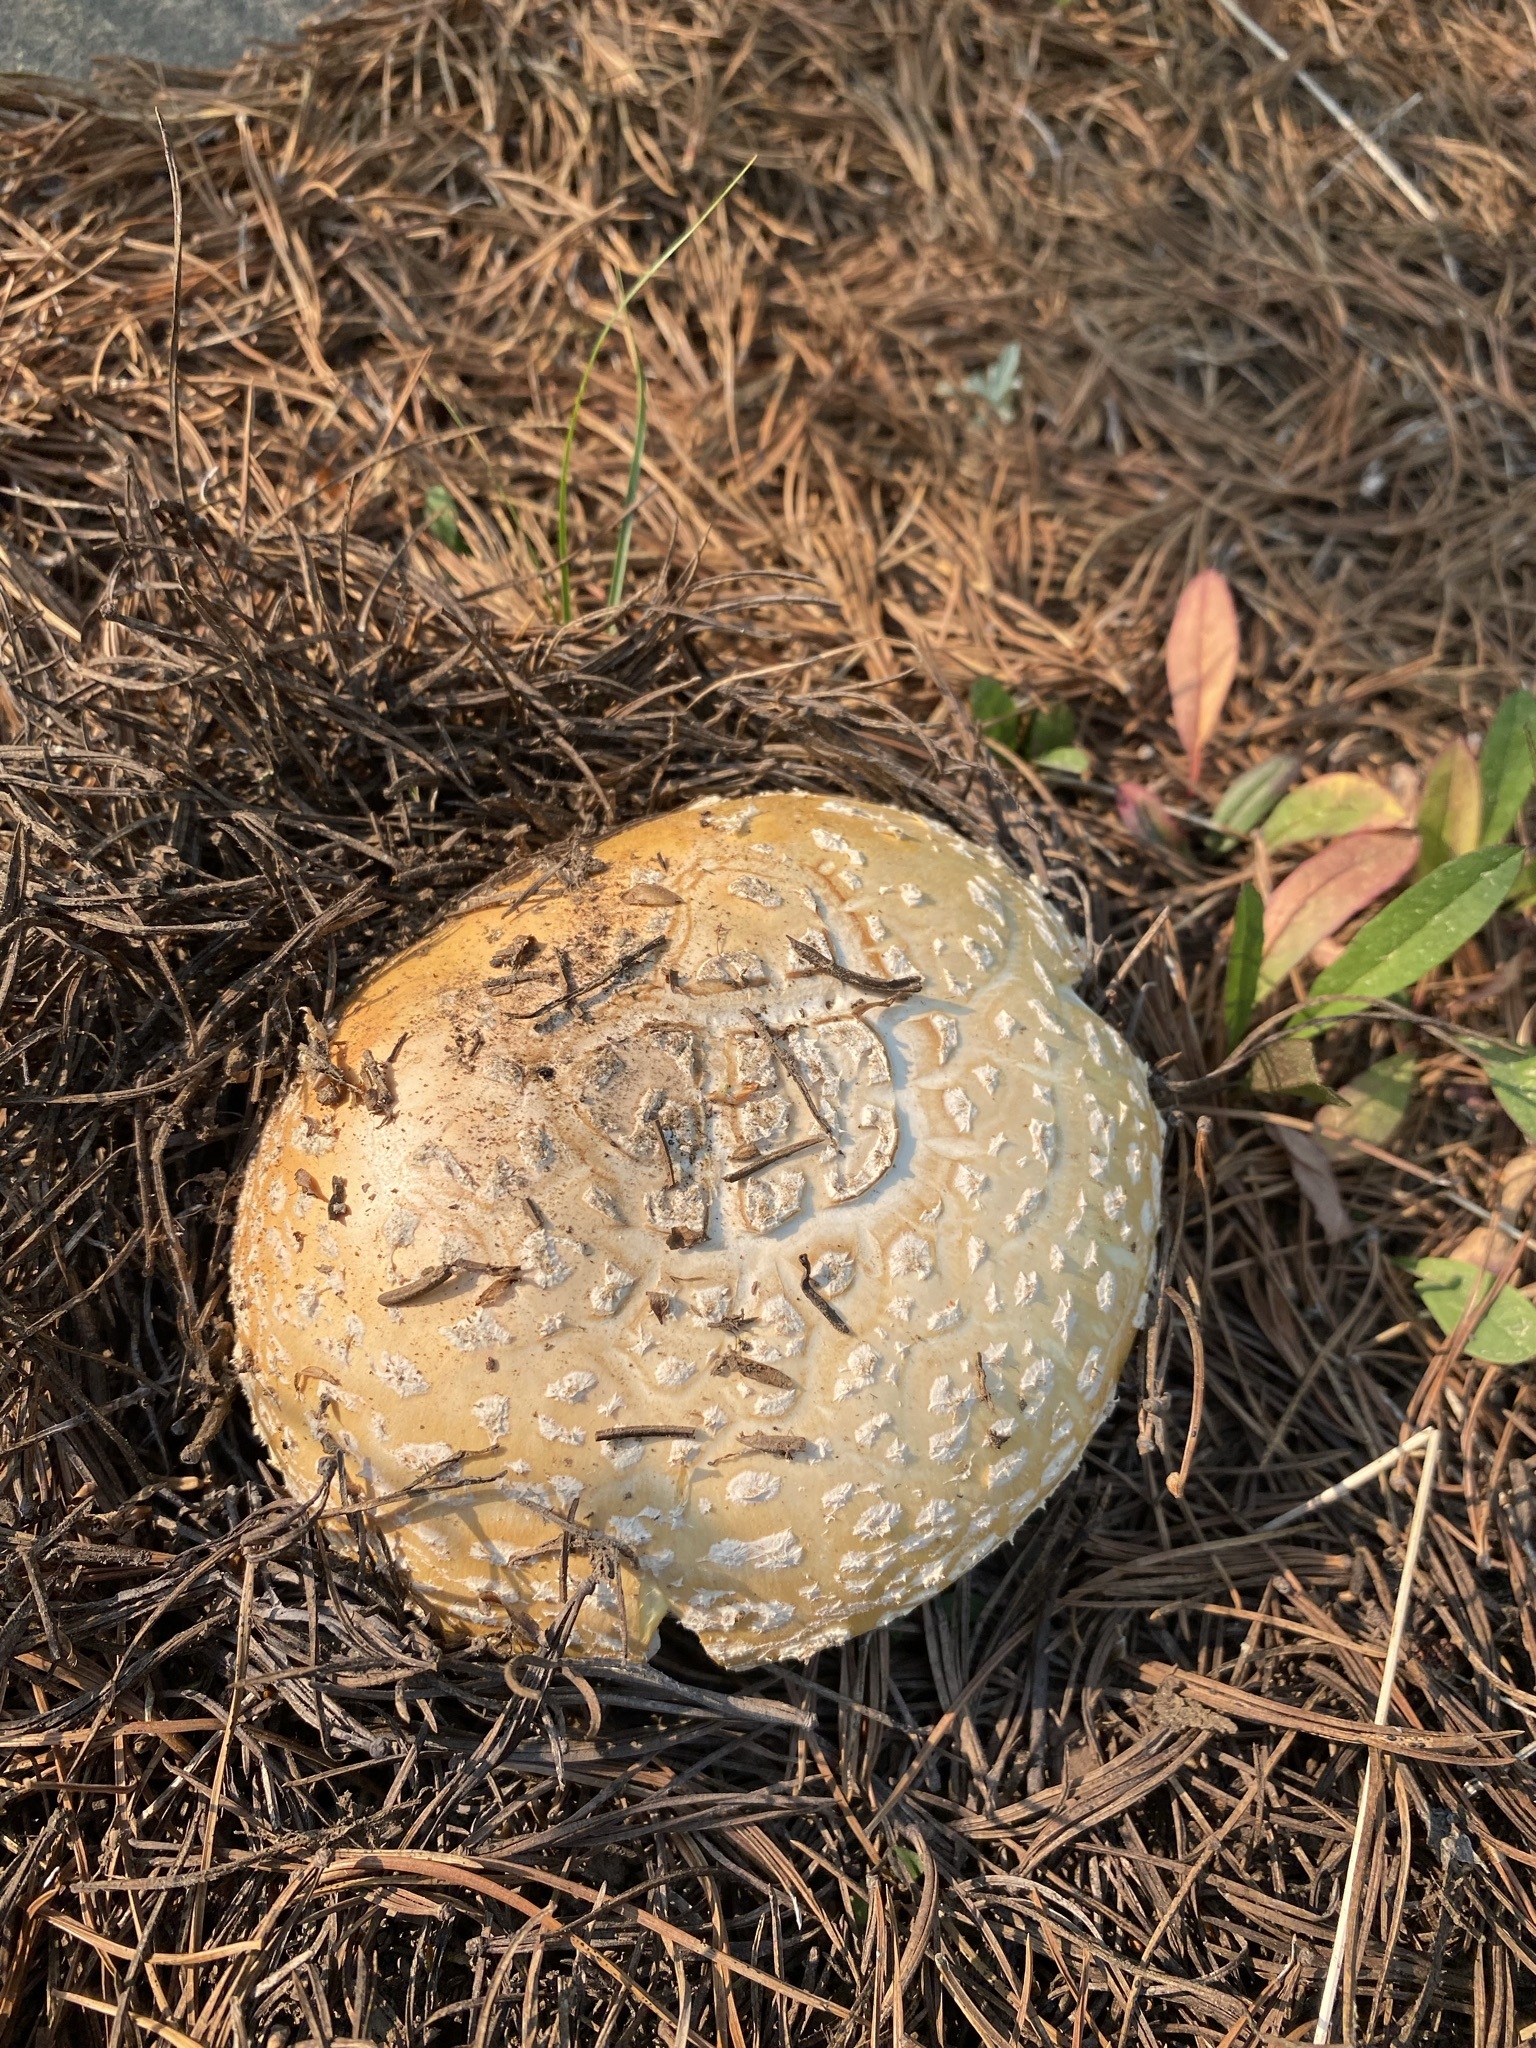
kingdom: Fungi
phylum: Basidiomycota
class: Agaricomycetes
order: Agaricales
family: Amanitaceae
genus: Amanita
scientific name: Amanita muscaria
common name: Fly agaric
